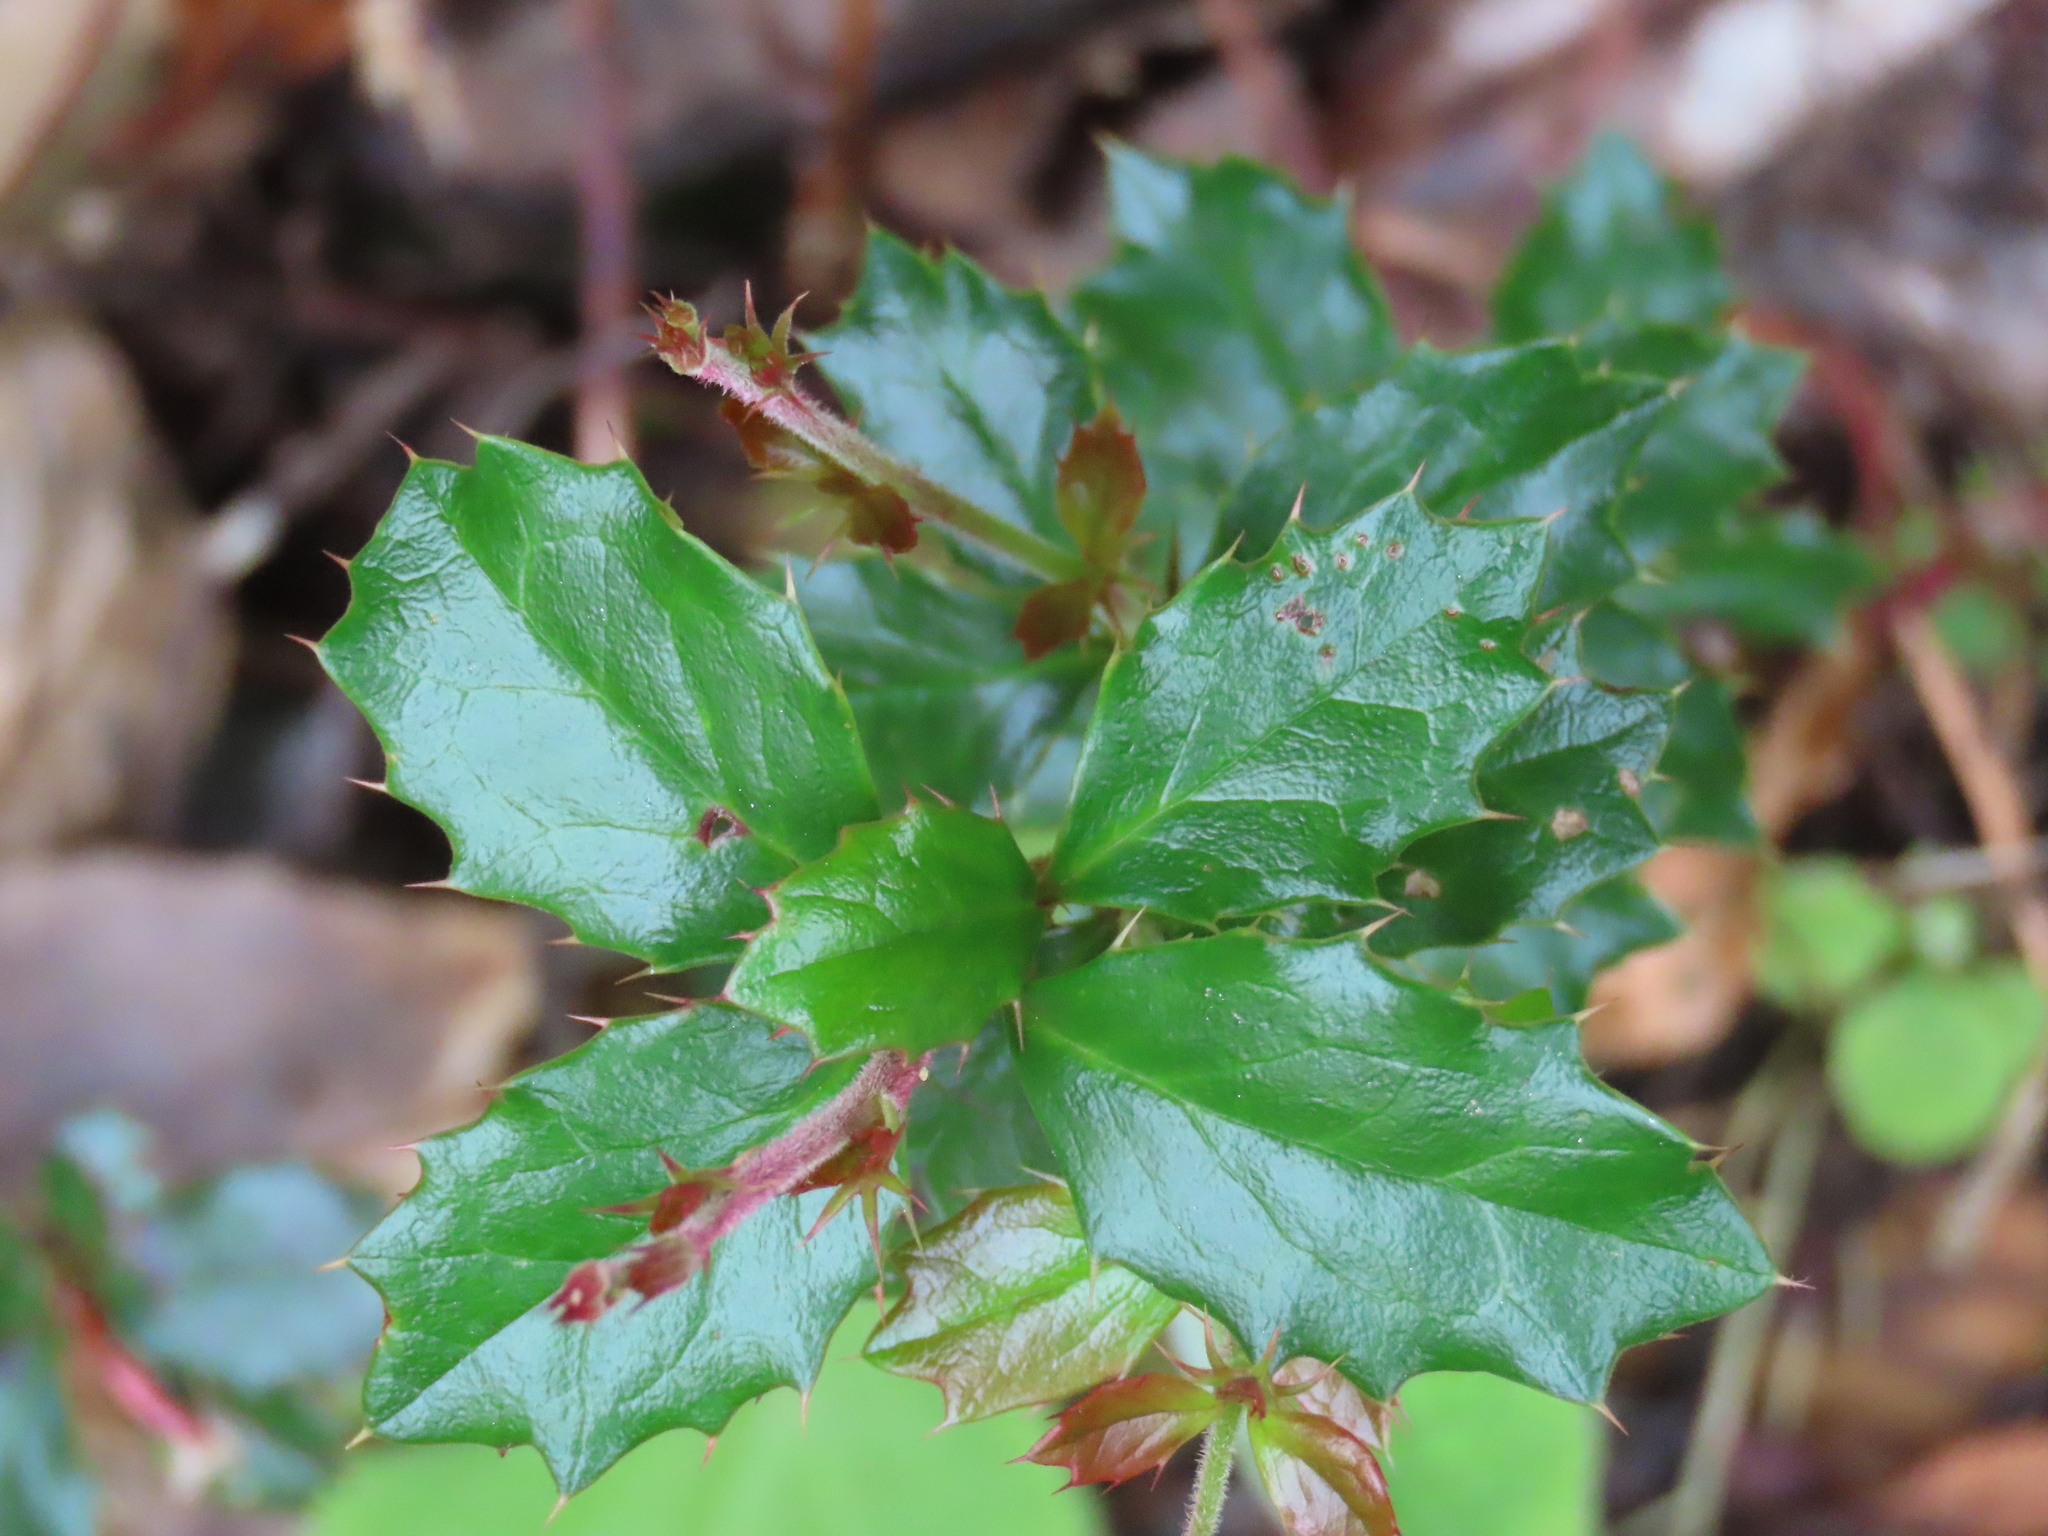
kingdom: Plantae
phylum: Tracheophyta
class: Magnoliopsida
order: Ranunculales
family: Berberidaceae
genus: Berberis
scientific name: Berberis darwinii
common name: Darwin's barberry
